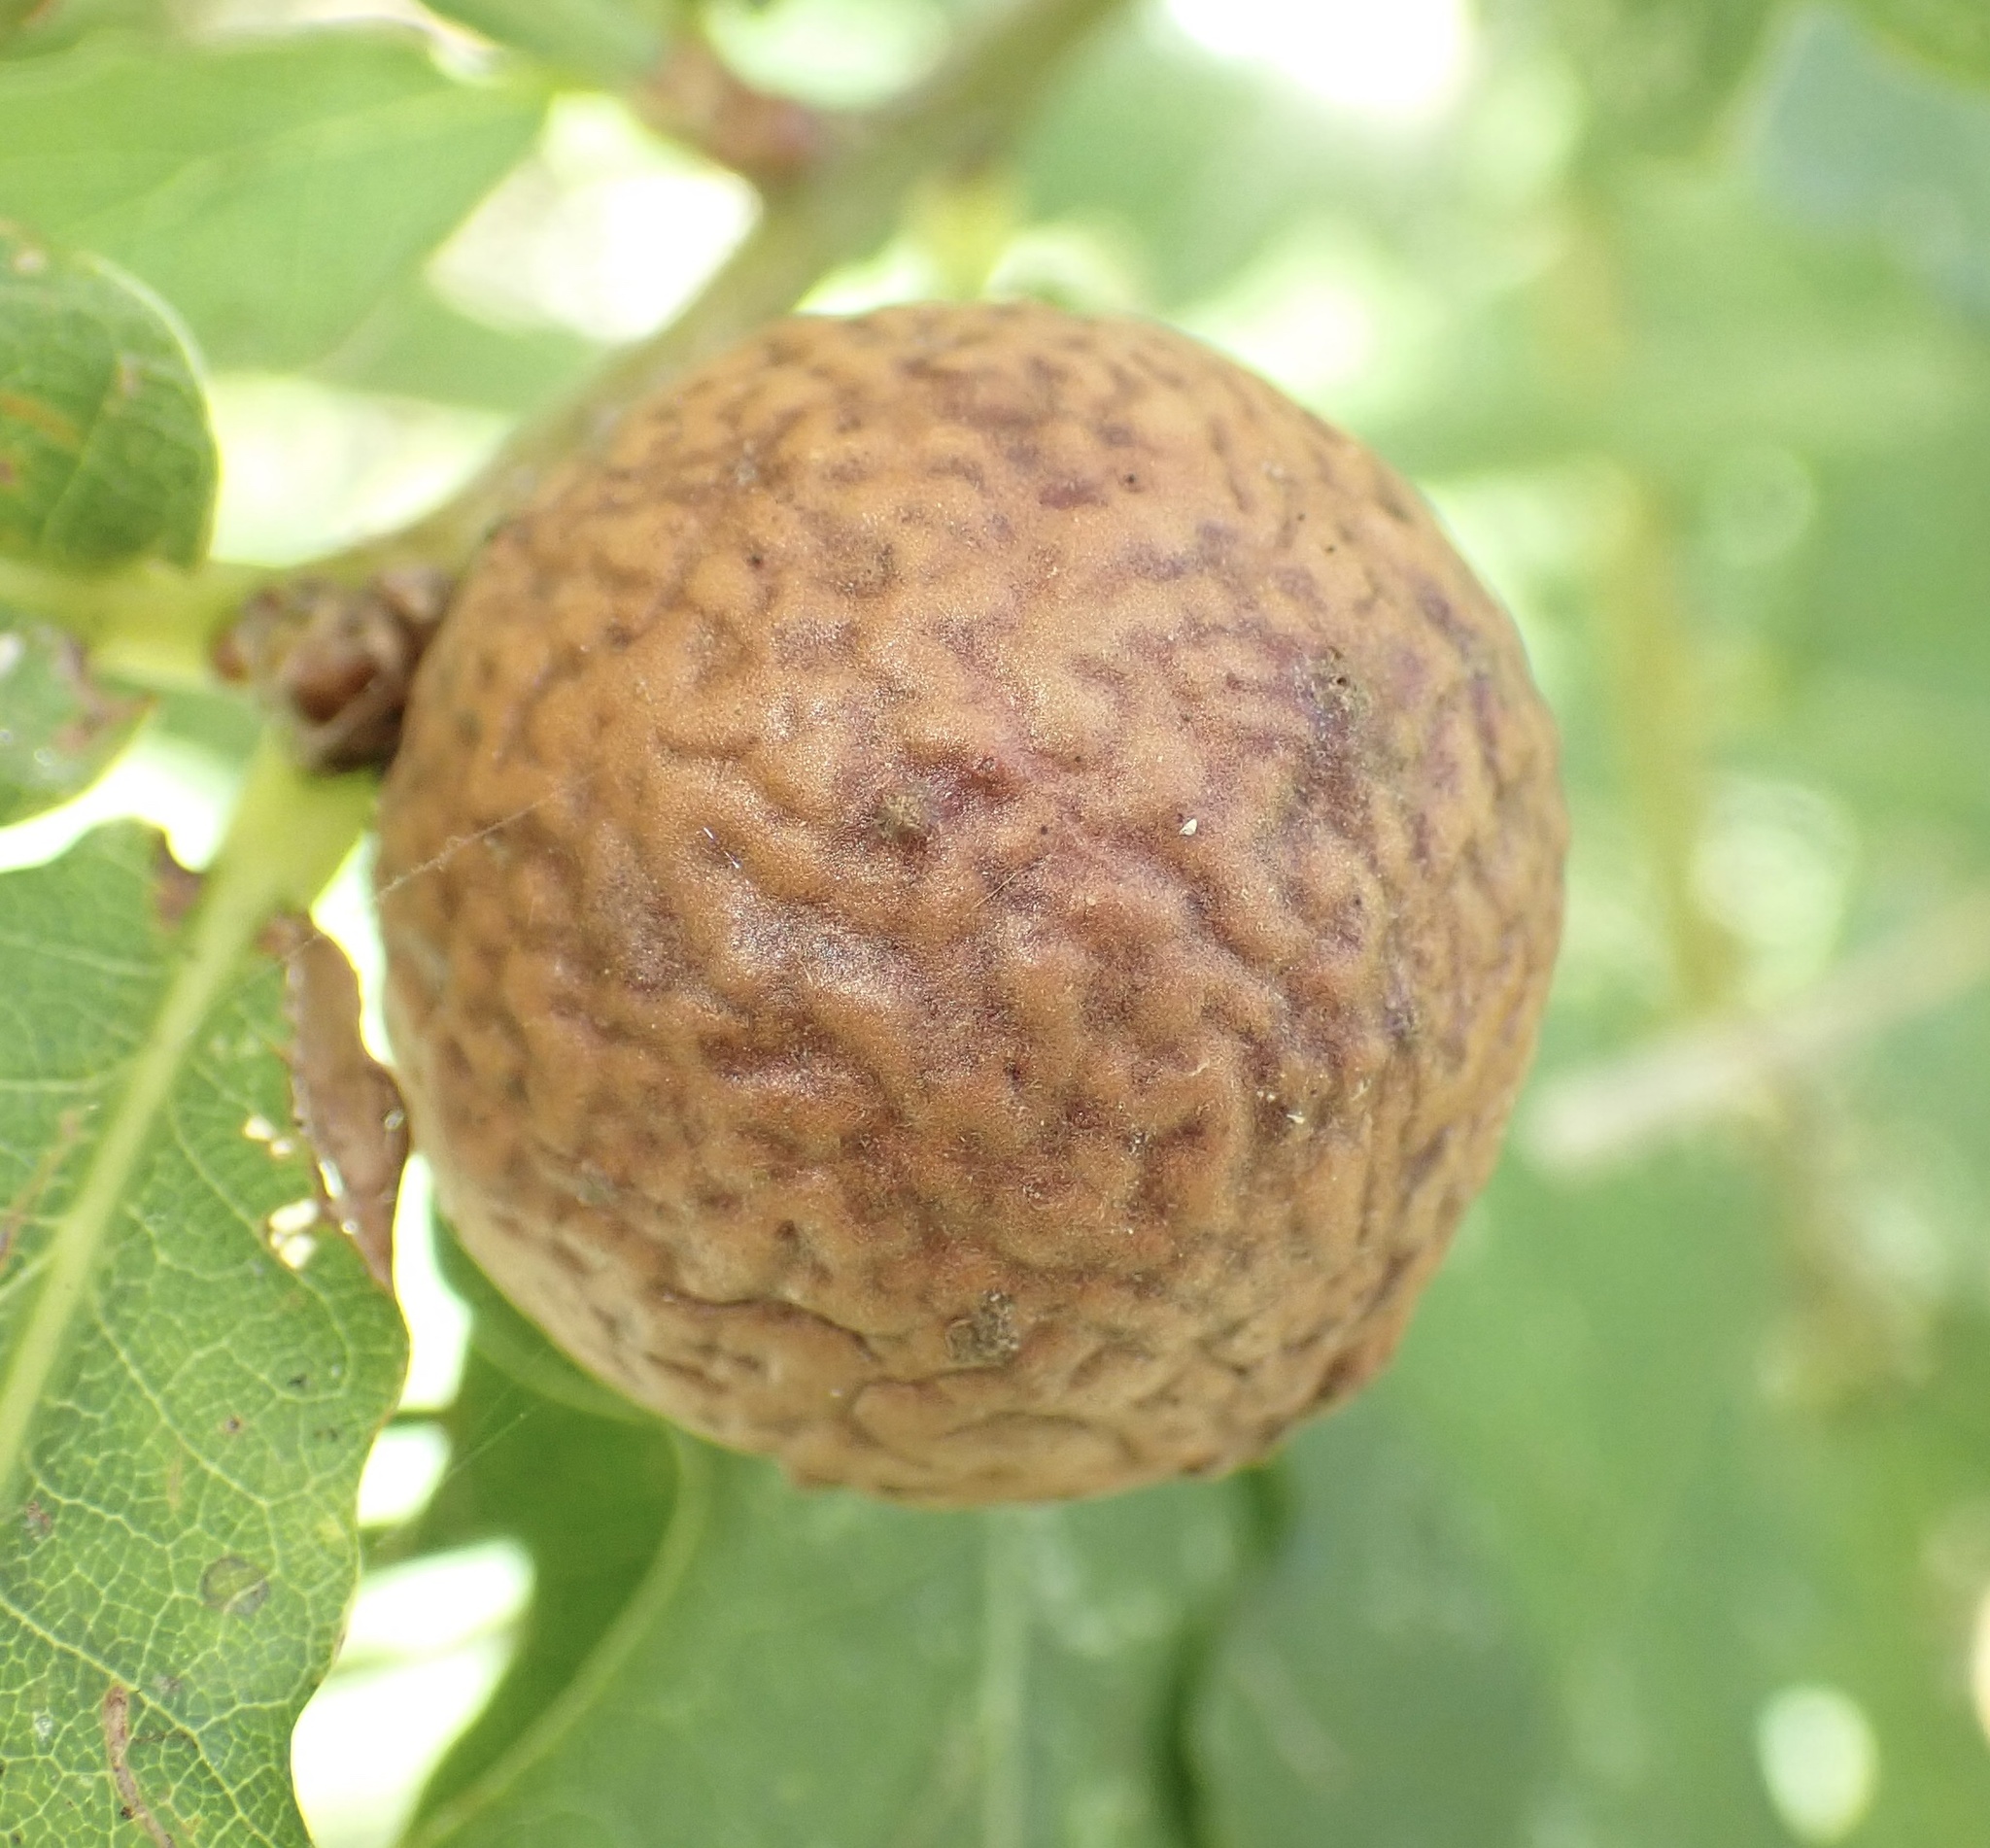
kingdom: Animalia
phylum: Arthropoda
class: Insecta
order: Hymenoptera
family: Cynipidae
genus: Andricus
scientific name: Andricus kollari
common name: Marble gall
